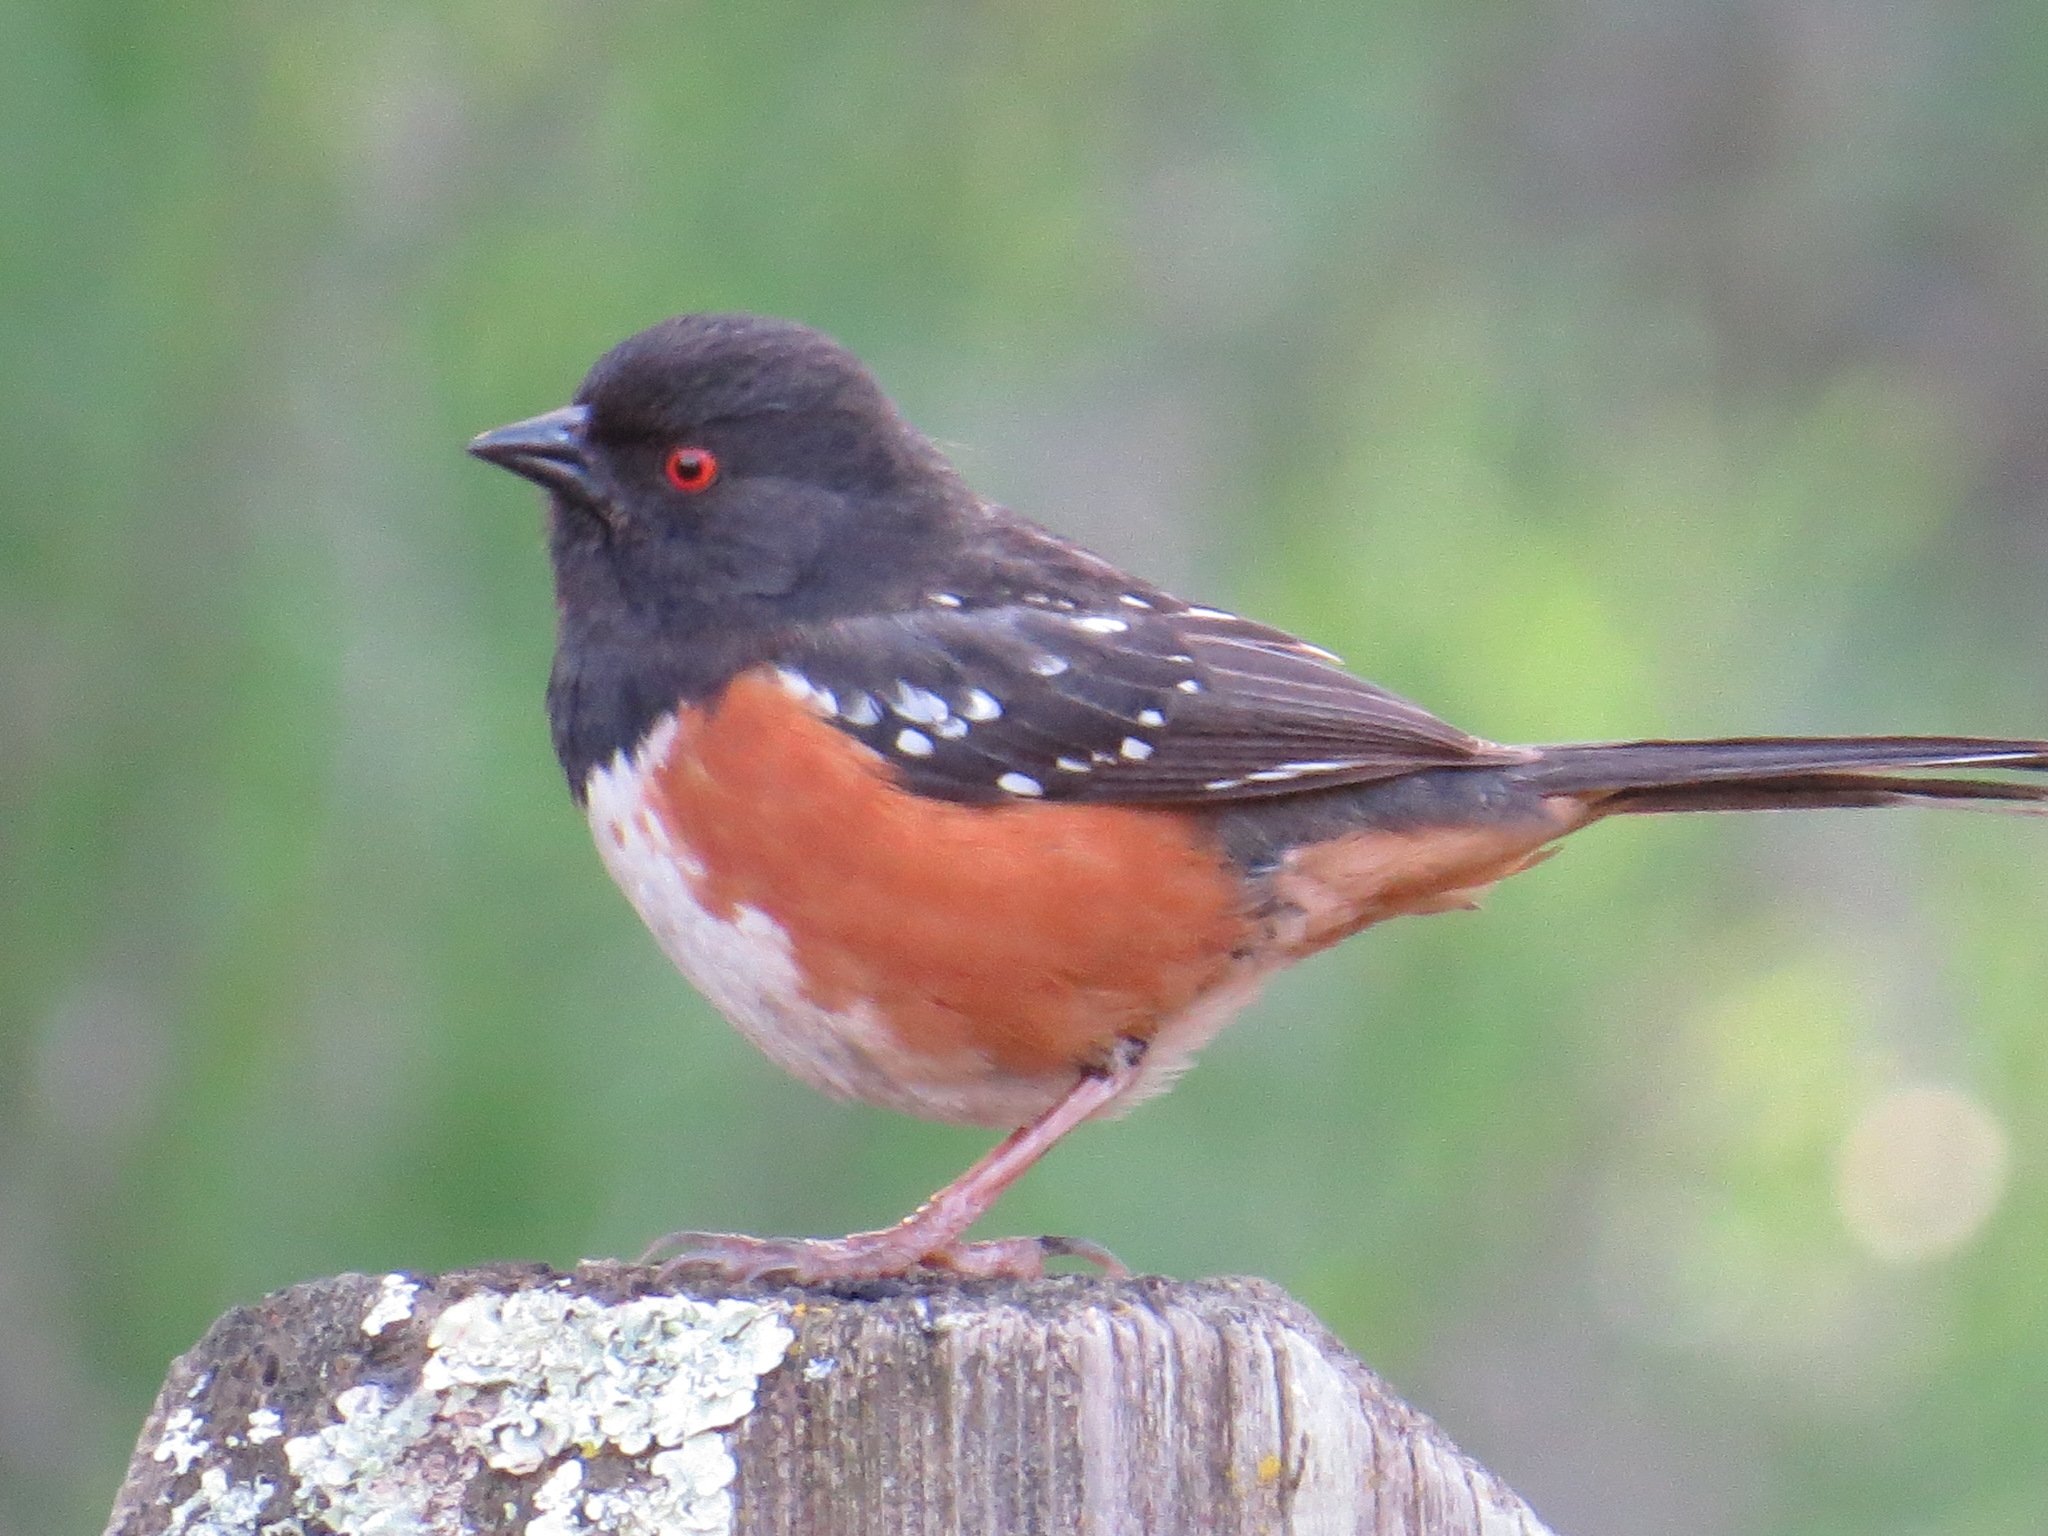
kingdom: Animalia
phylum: Chordata
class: Aves
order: Passeriformes
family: Passerellidae
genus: Pipilo
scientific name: Pipilo maculatus
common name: Spotted towhee
